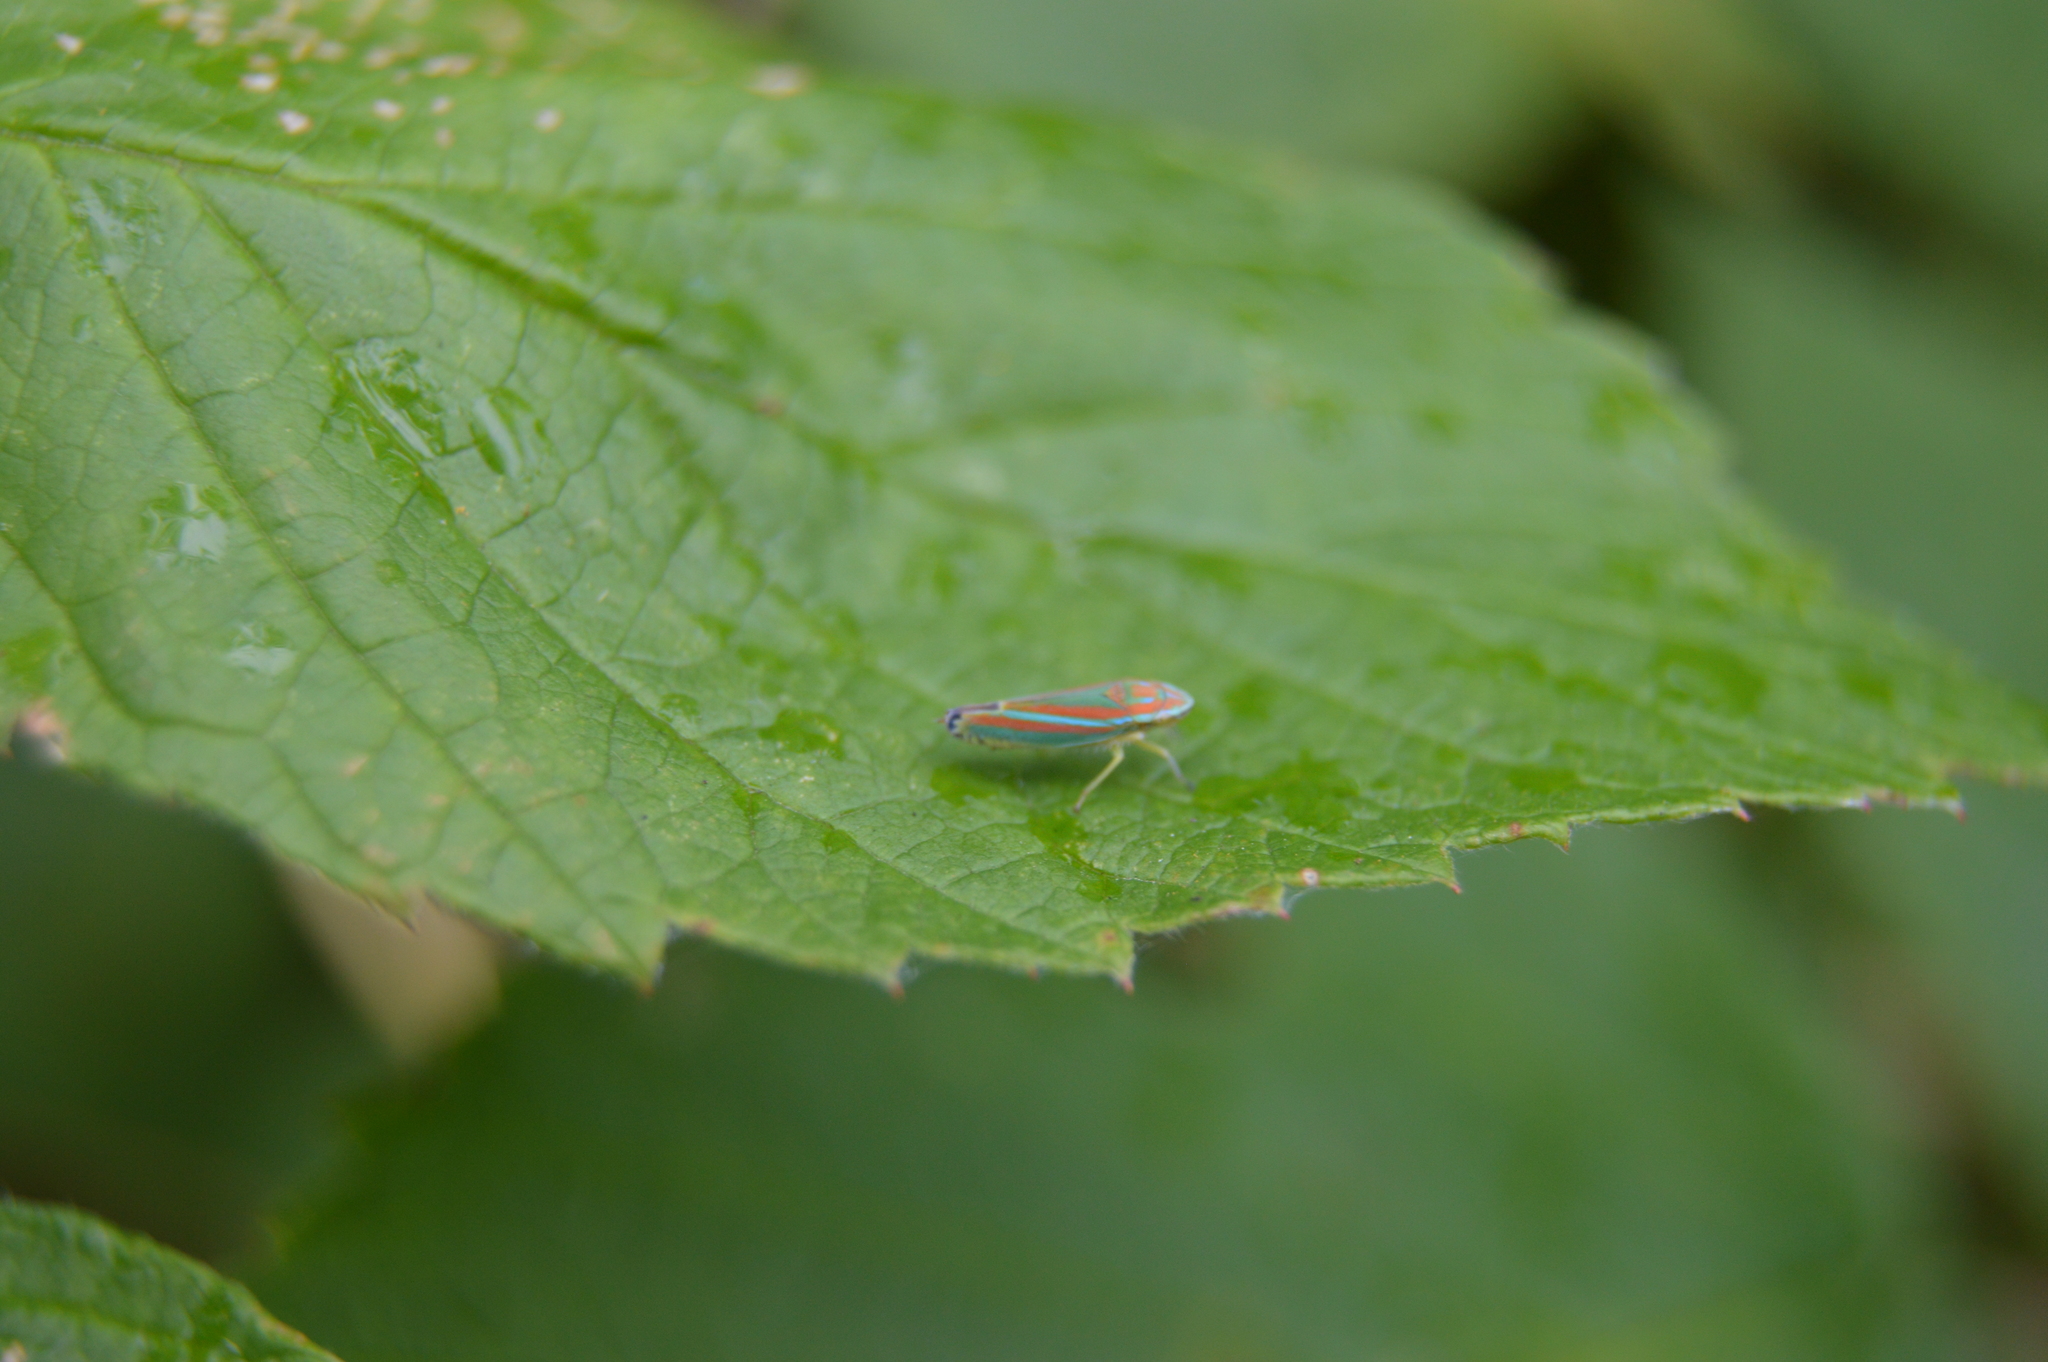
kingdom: Animalia
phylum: Arthropoda
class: Insecta
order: Hemiptera
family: Cicadellidae
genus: Graphocephala
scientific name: Graphocephala versuta
